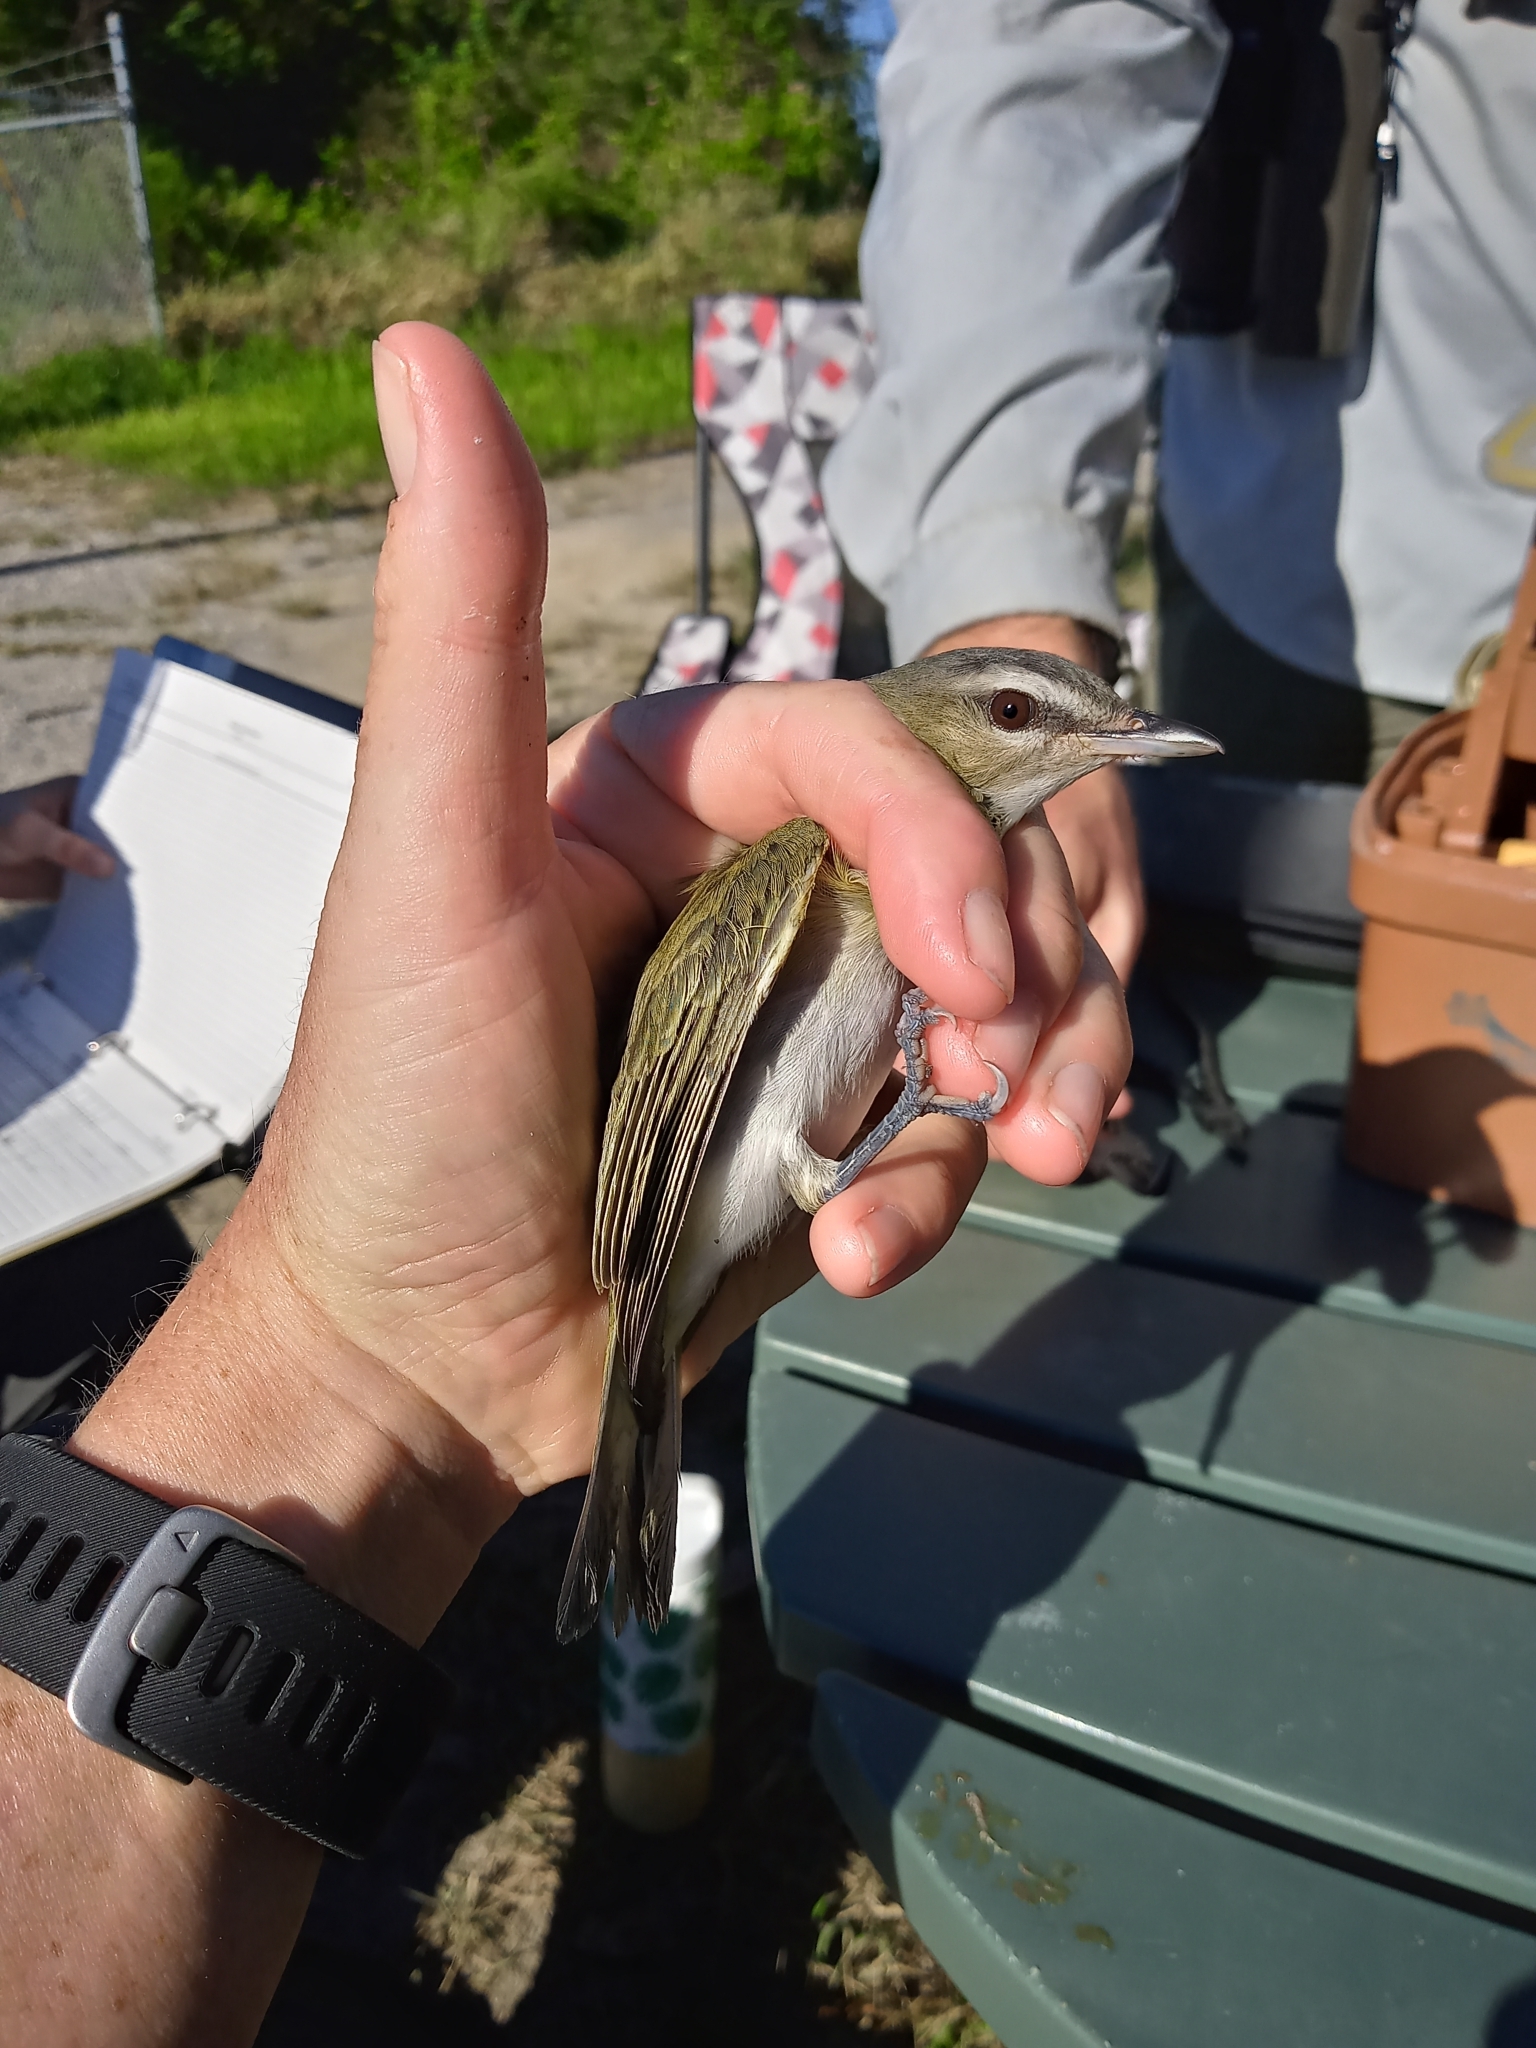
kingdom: Animalia
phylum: Chordata
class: Aves
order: Passeriformes
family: Vireonidae
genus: Vireo
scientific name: Vireo olivaceus
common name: Red-eyed vireo
